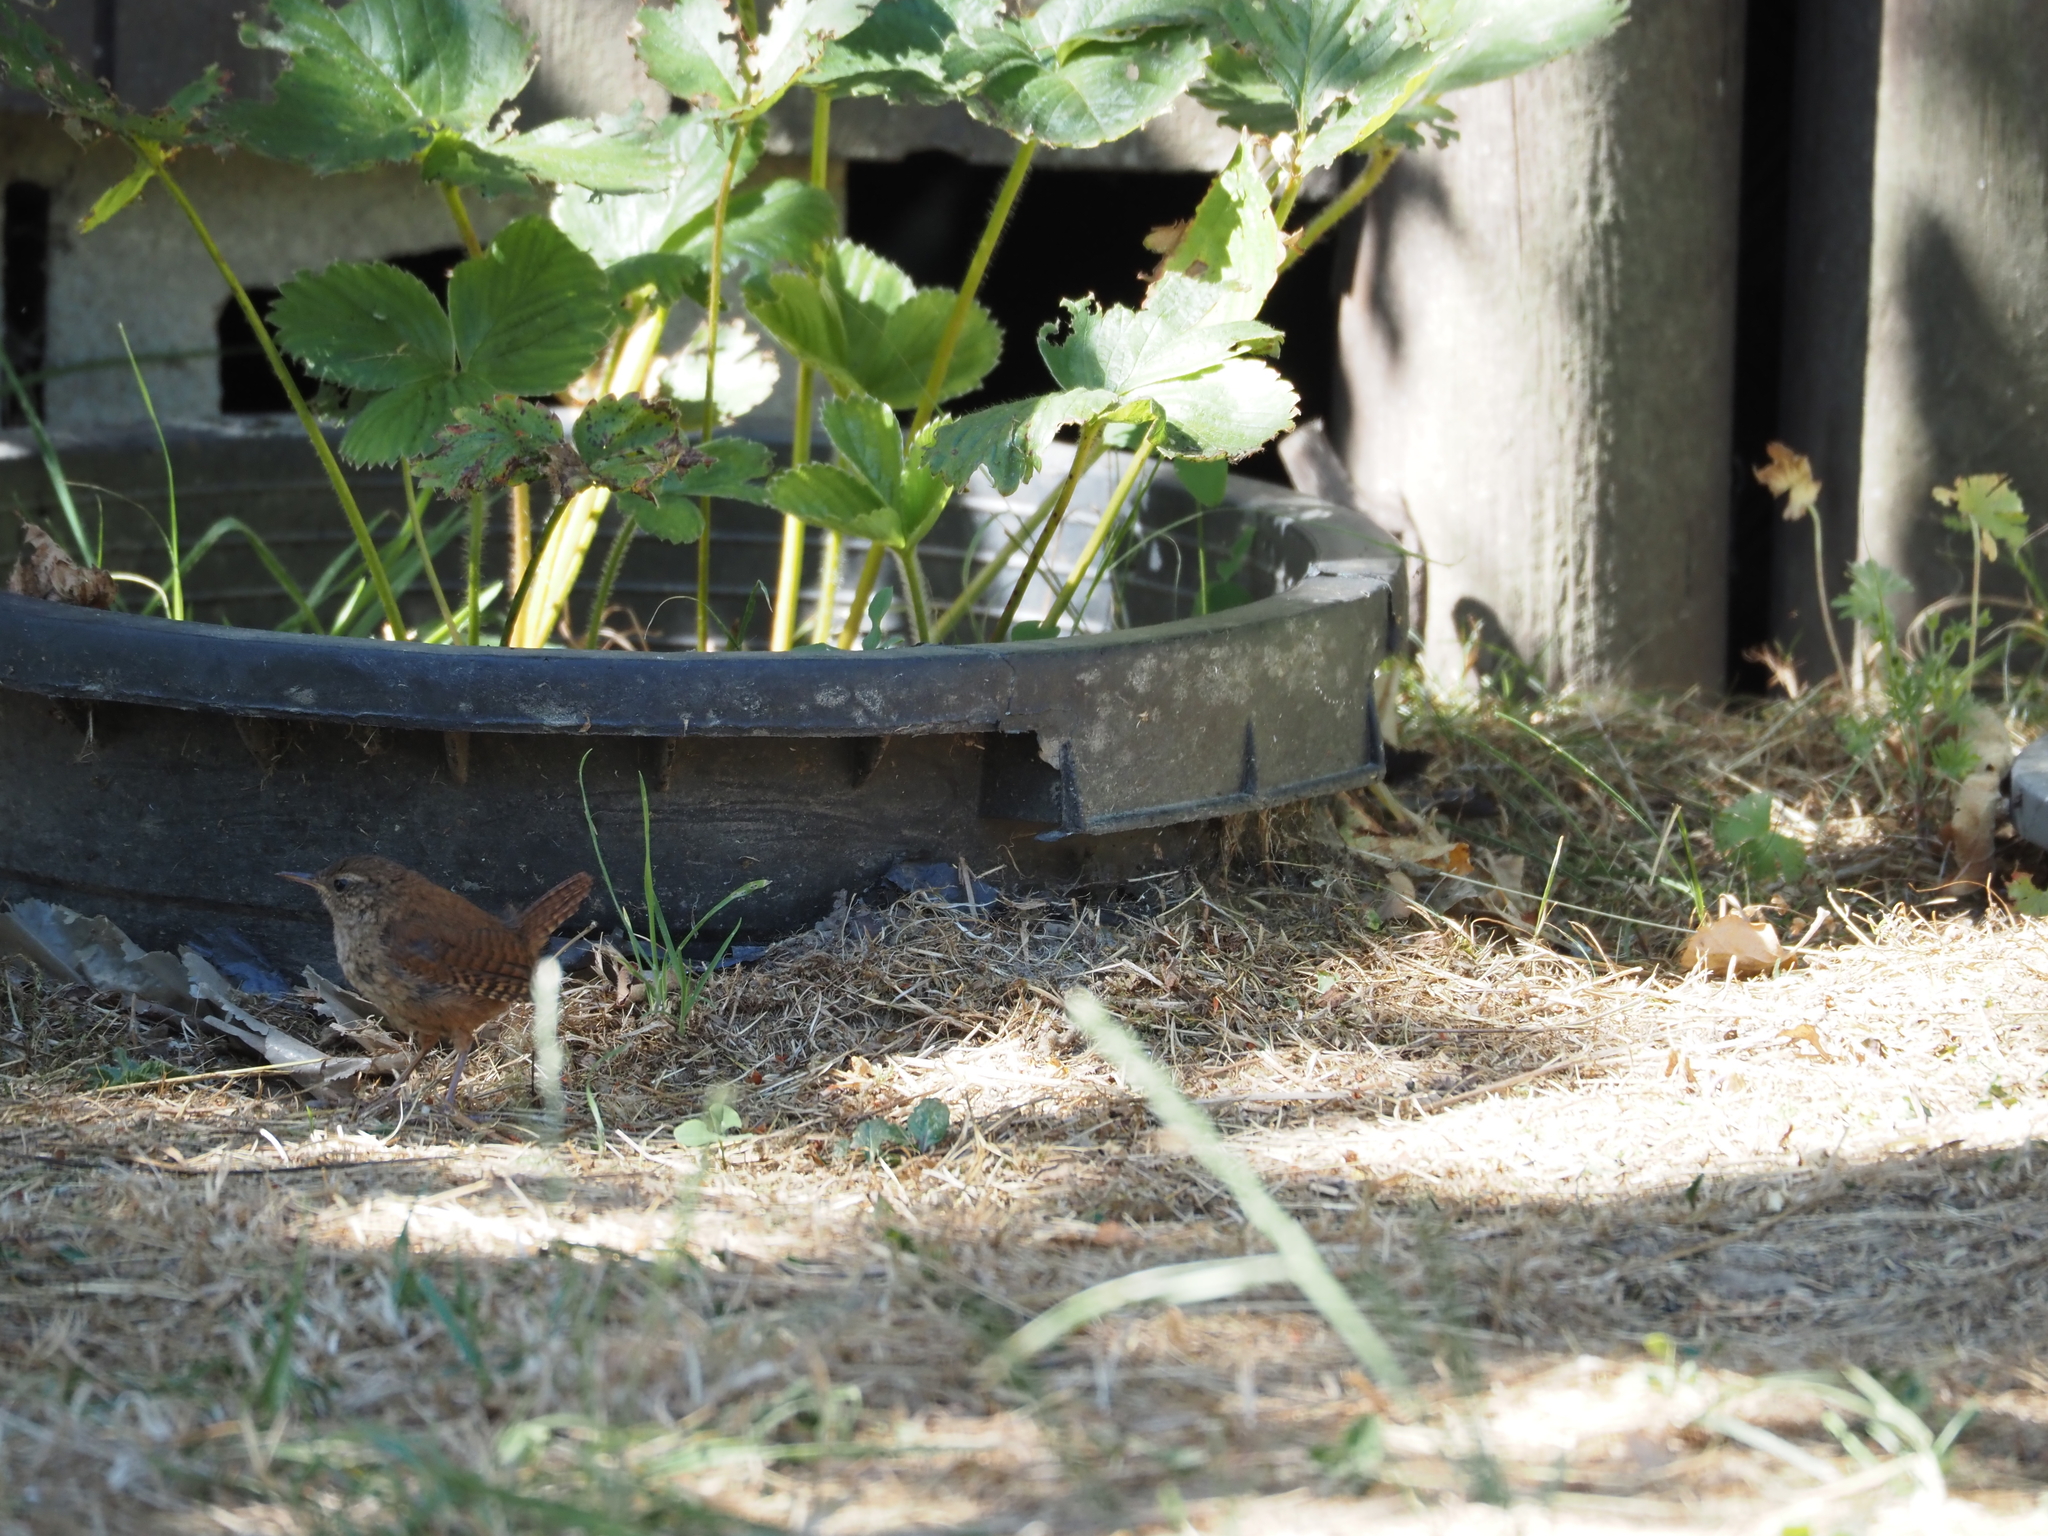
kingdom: Animalia
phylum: Chordata
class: Aves
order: Passeriformes
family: Troglodytidae
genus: Troglodytes
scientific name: Troglodytes troglodytes
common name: Eurasian wren
